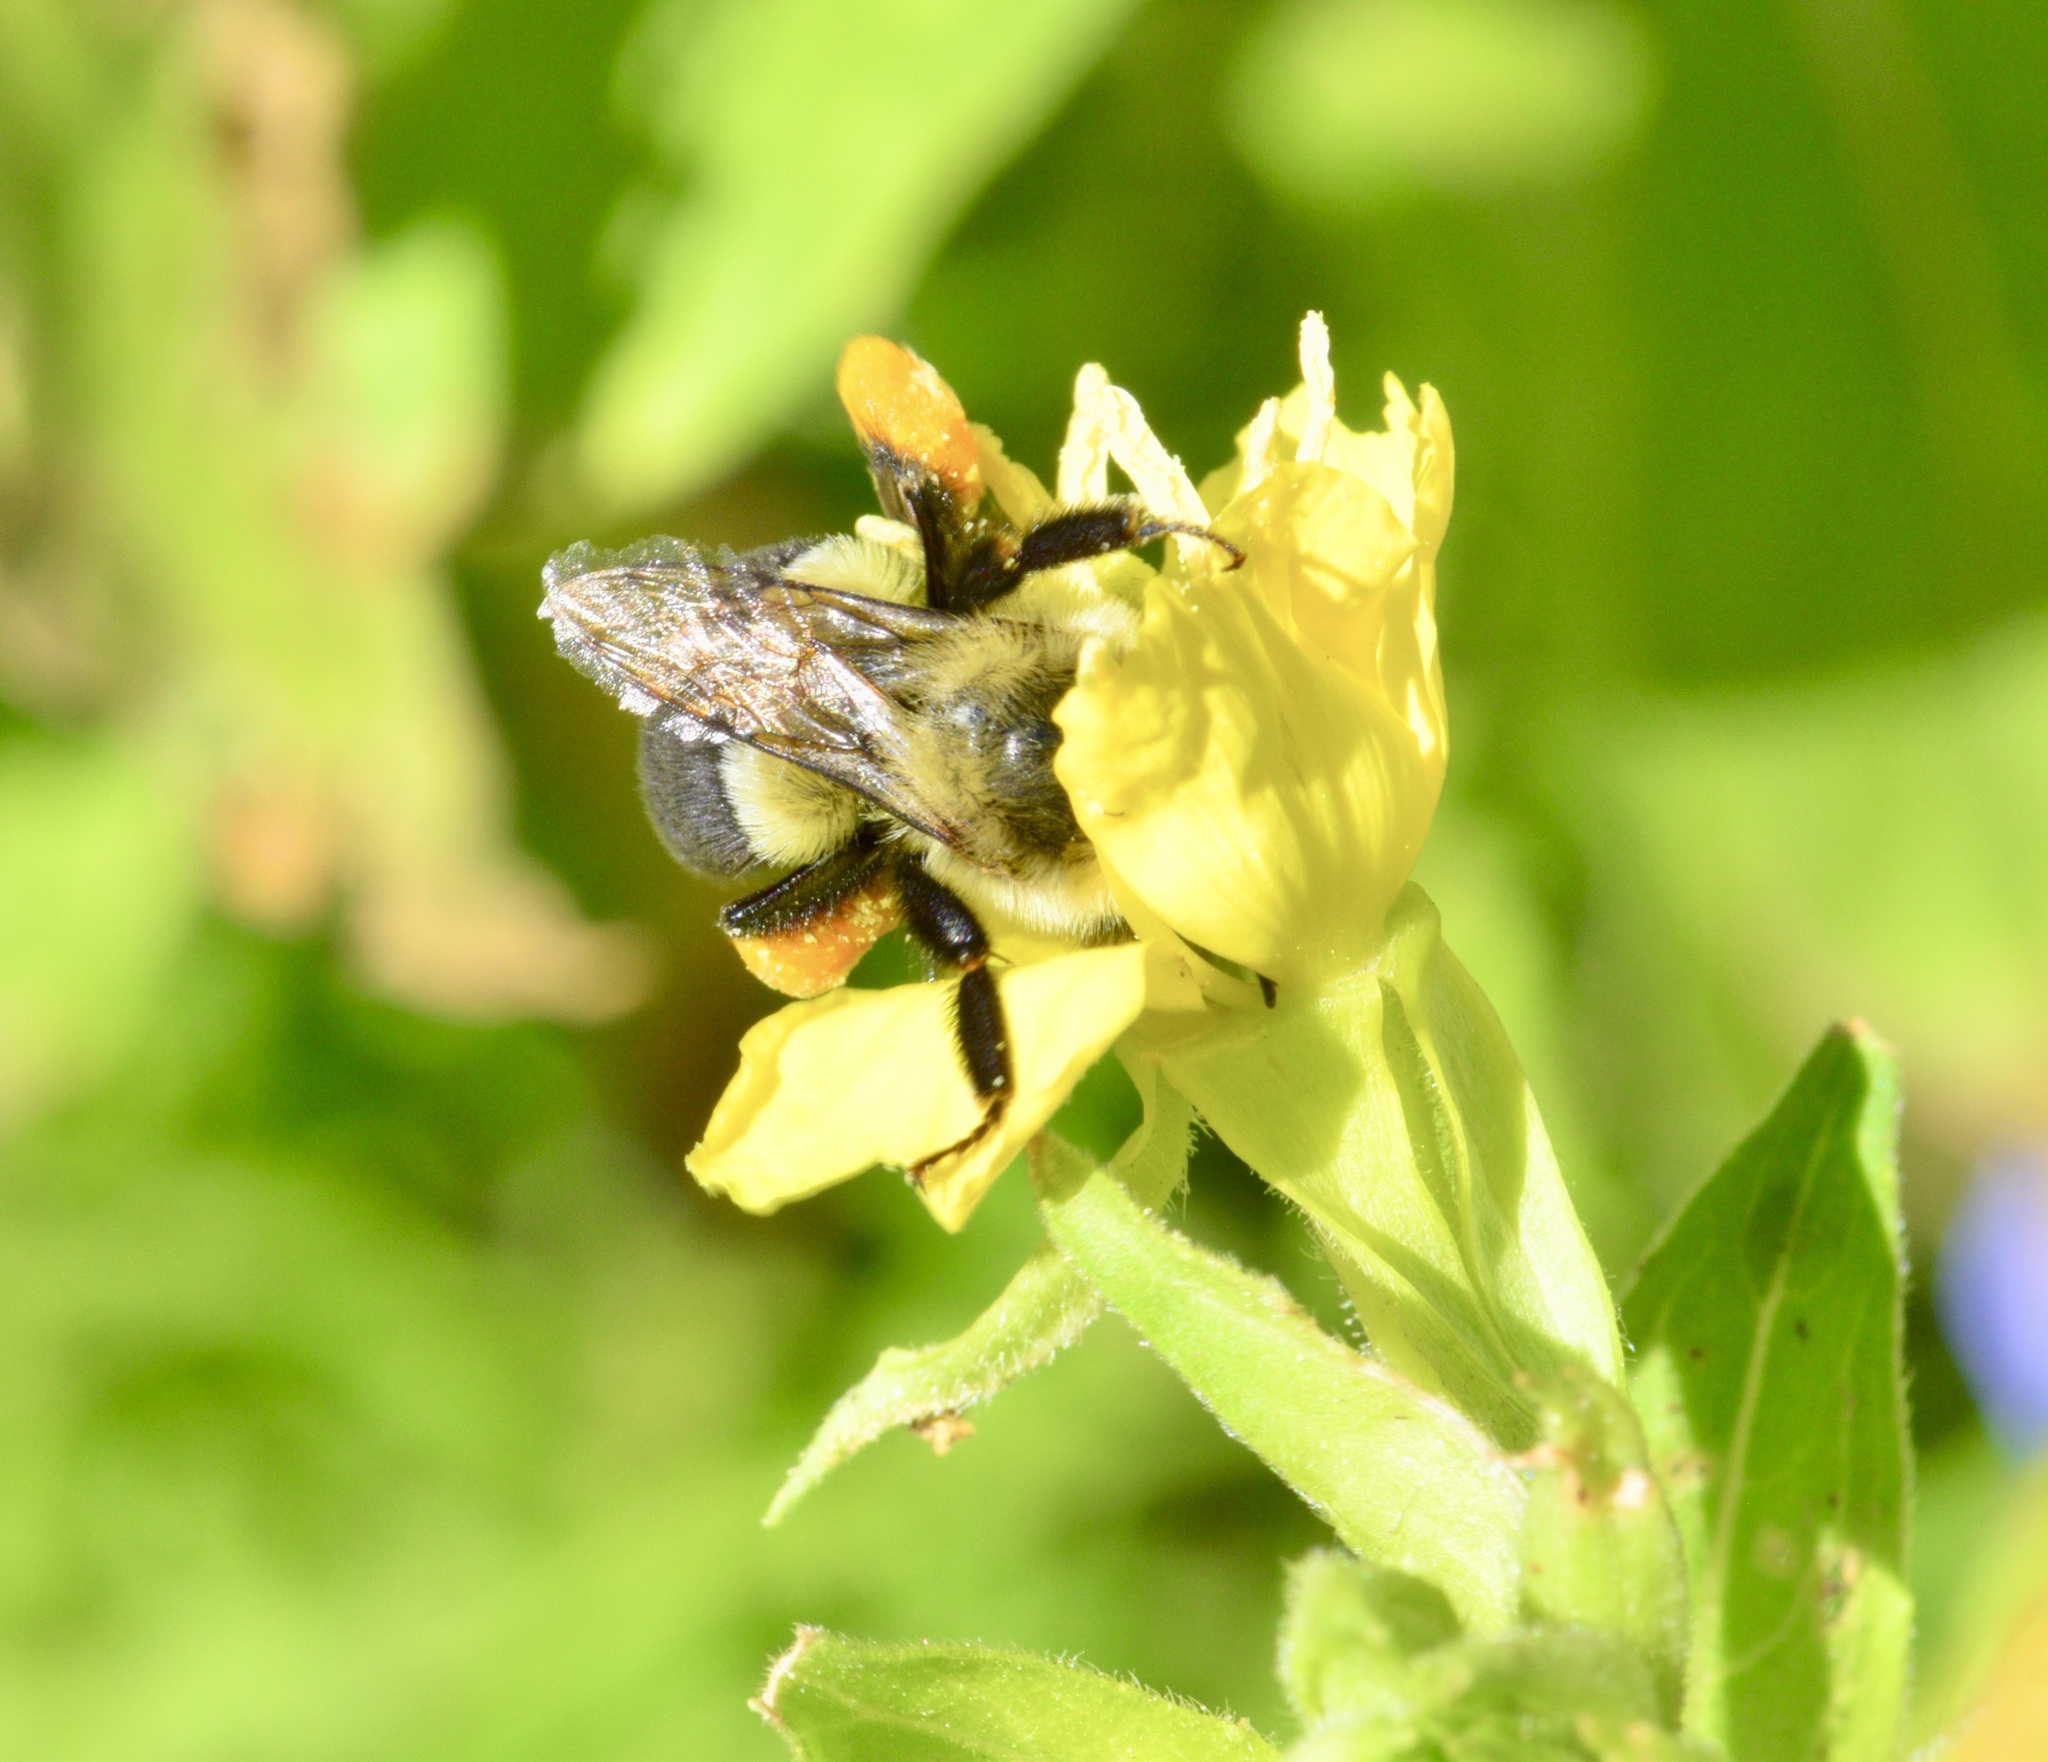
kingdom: Animalia
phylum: Arthropoda
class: Insecta
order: Hymenoptera
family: Apidae
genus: Bombus
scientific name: Bombus impatiens
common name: Common eastern bumble bee
